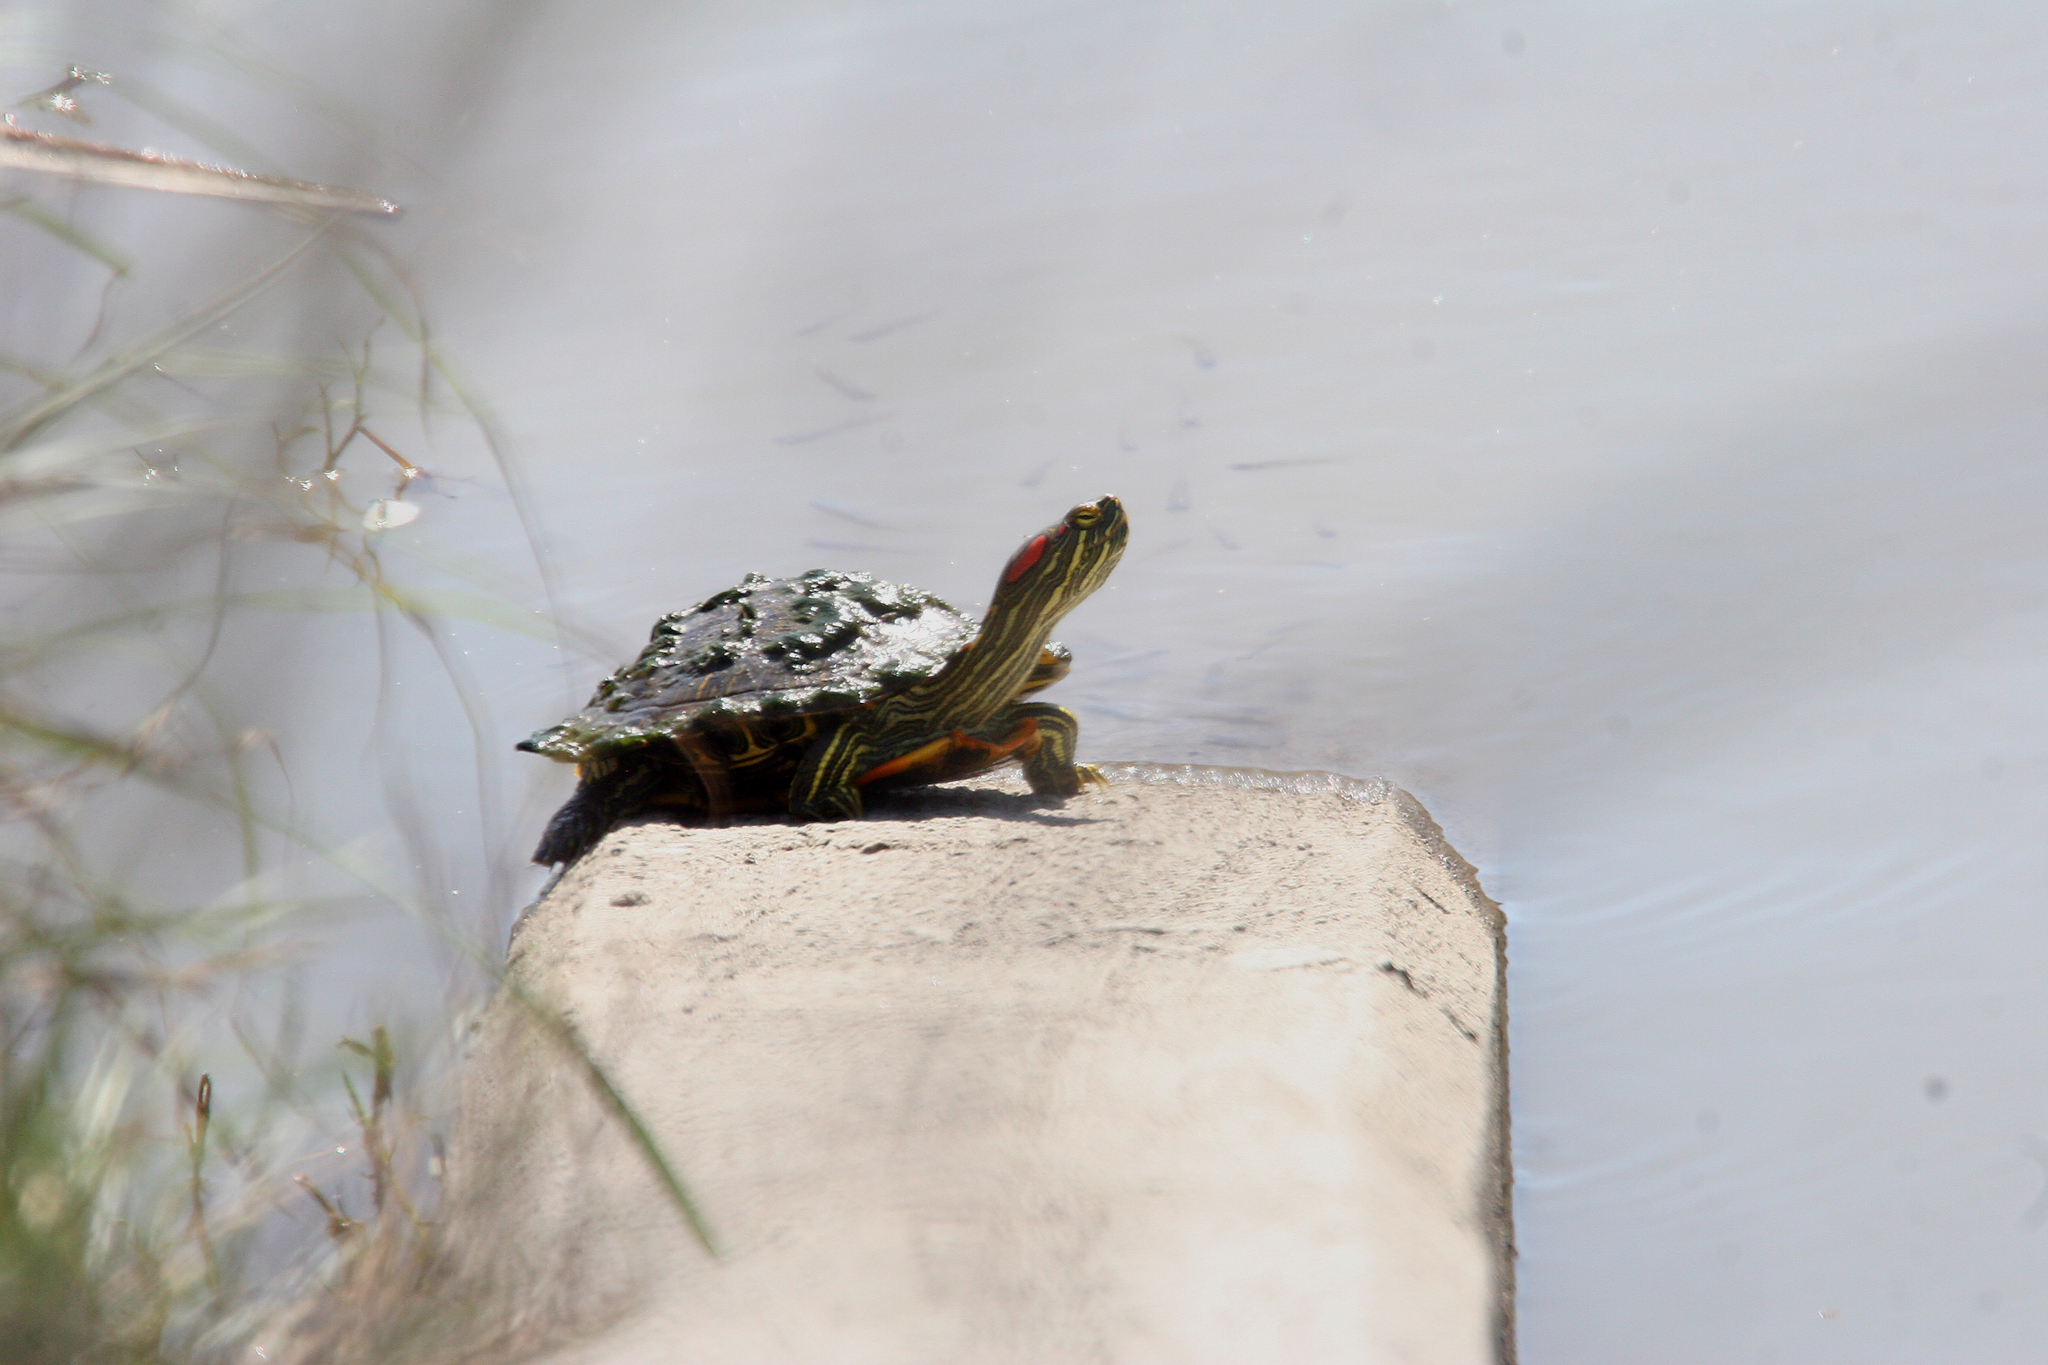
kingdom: Animalia
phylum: Chordata
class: Testudines
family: Emydidae
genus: Trachemys
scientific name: Trachemys scripta
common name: Slider
